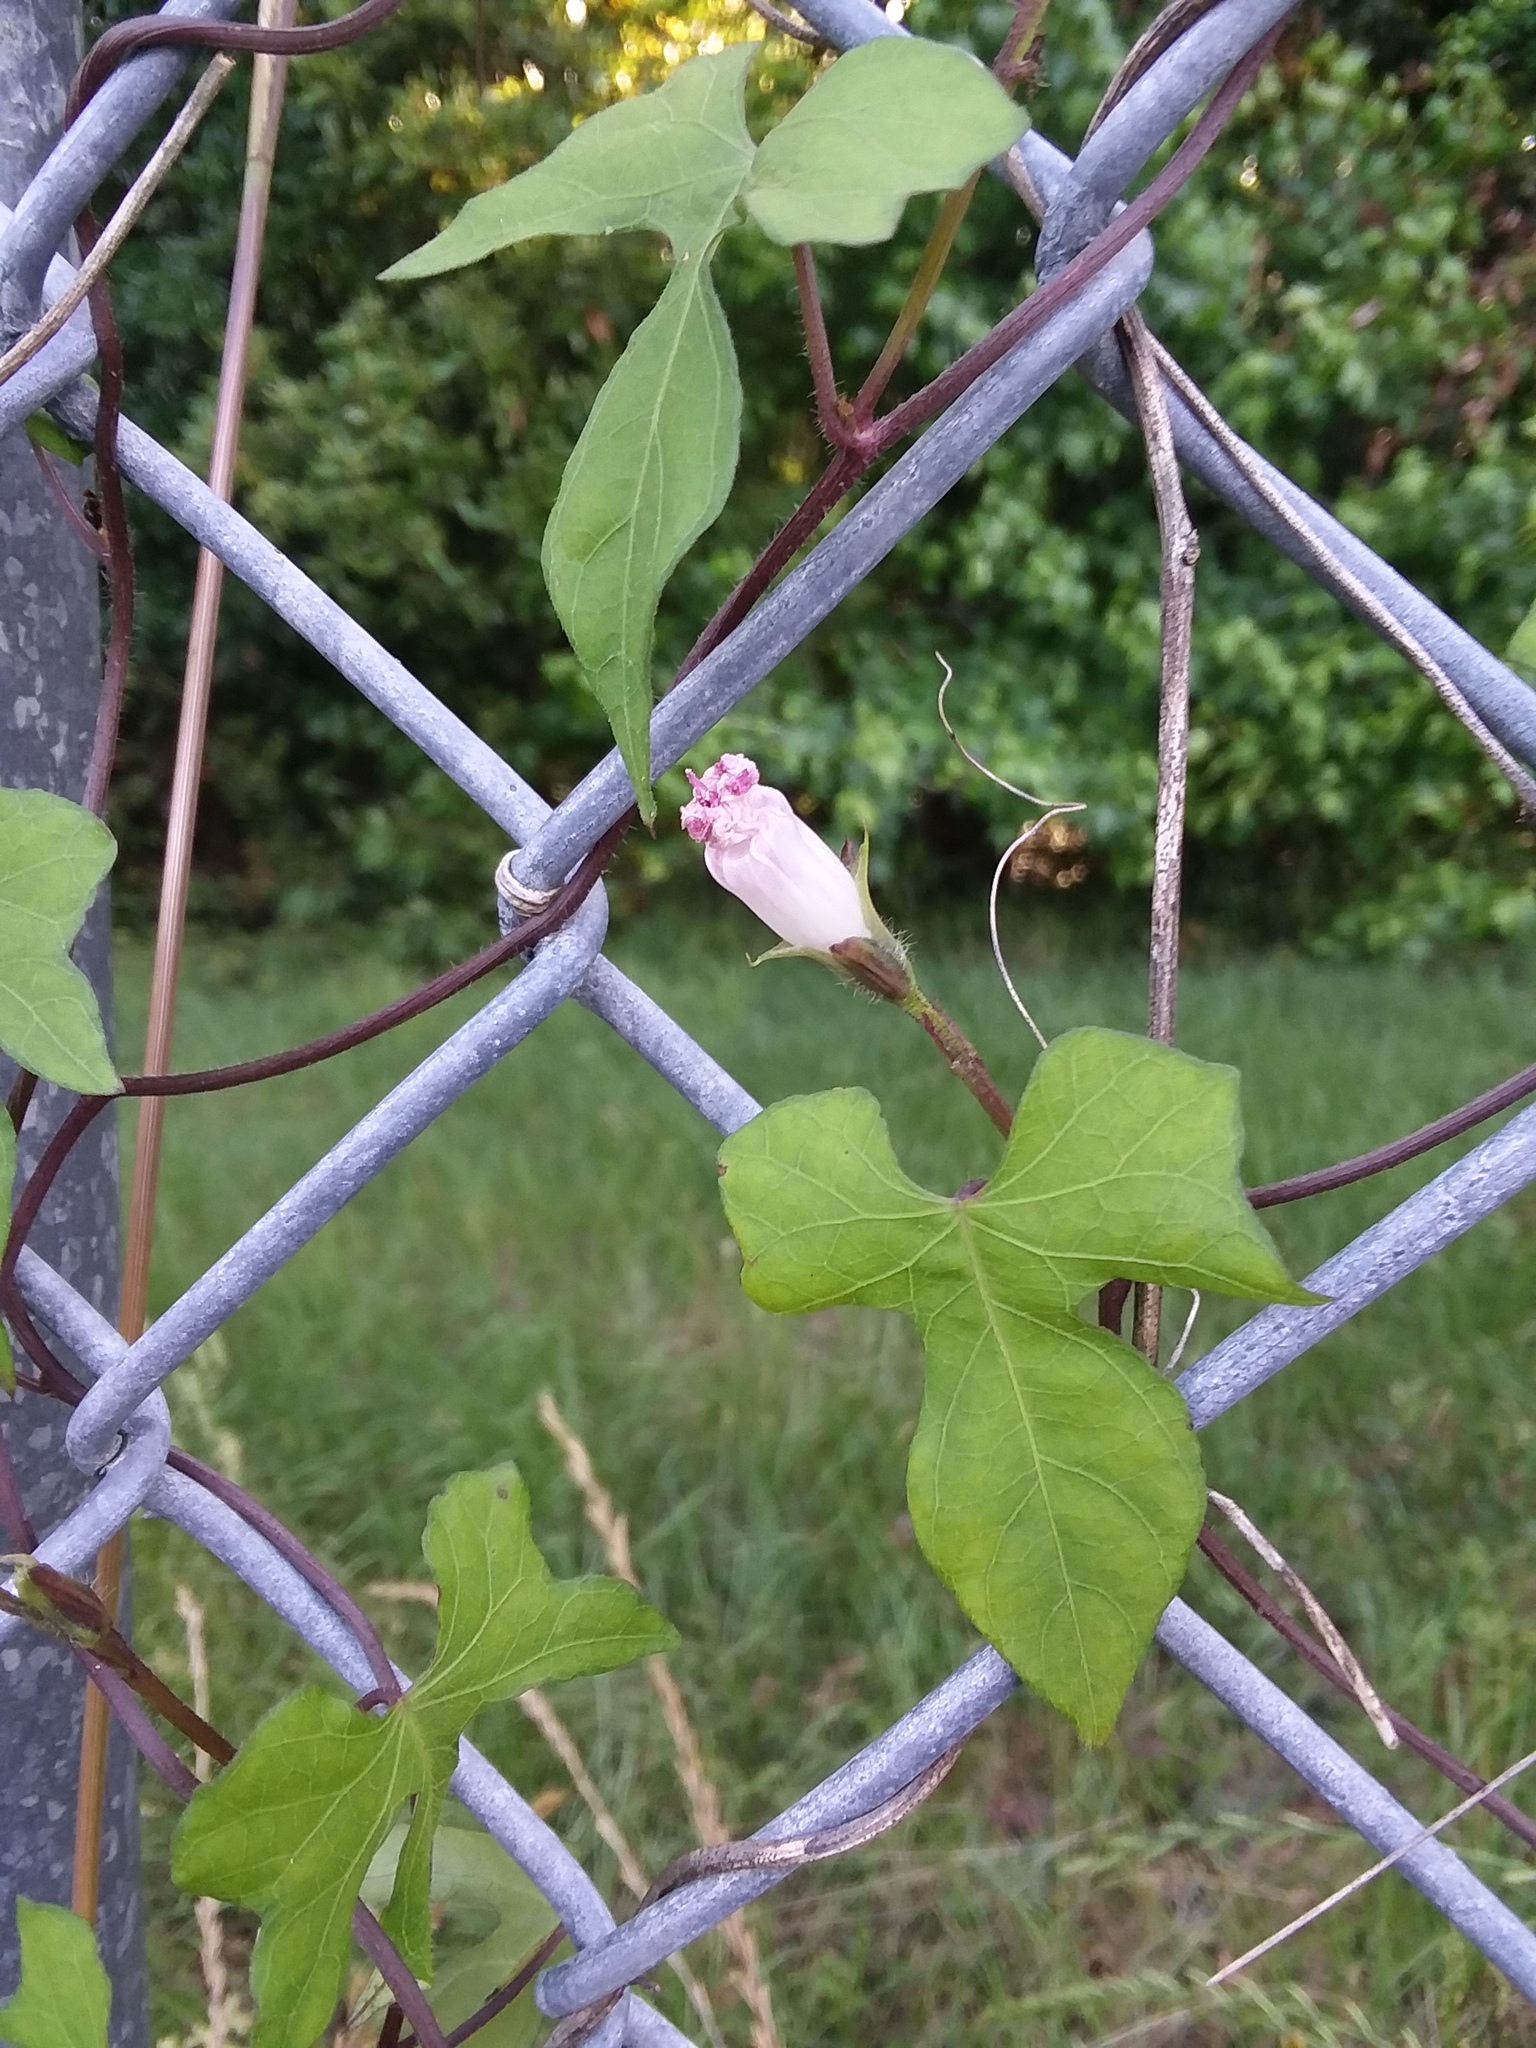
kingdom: Plantae
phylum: Tracheophyta
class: Magnoliopsida
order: Solanales
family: Convolvulaceae
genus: Ipomoea
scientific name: Ipomoea cordatotriloba
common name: Cotton morning glory
